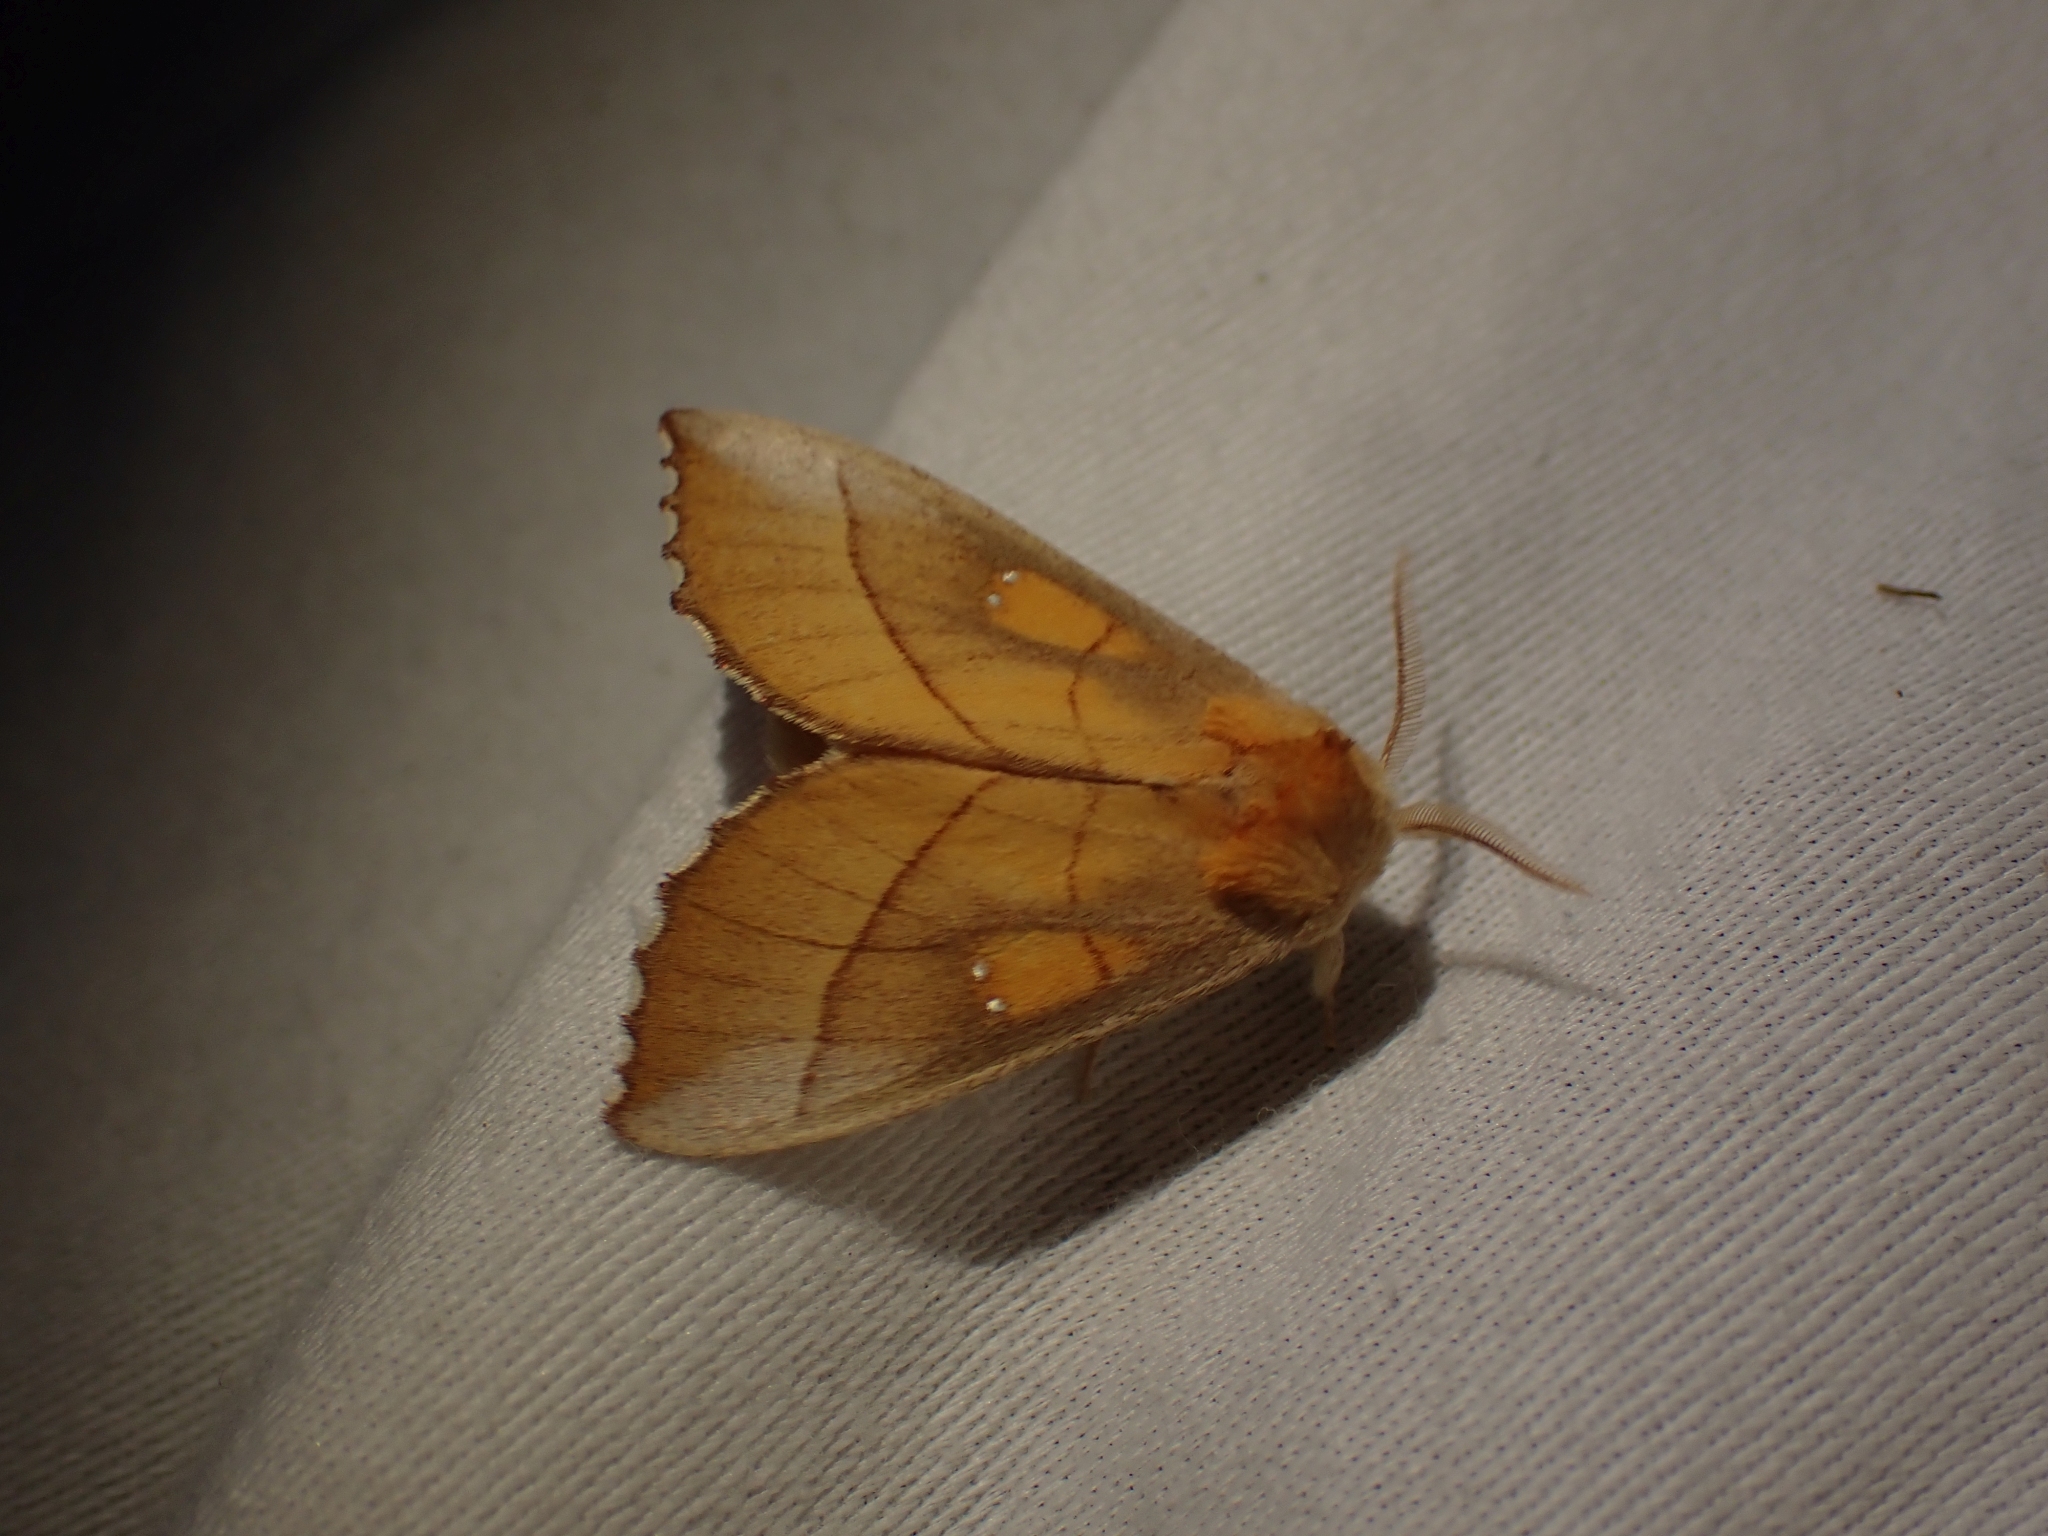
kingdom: Animalia
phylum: Arthropoda
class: Insecta
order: Lepidoptera
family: Notodontidae
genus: Nadata
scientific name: Nadata gibbosa
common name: White-dotted prominent
